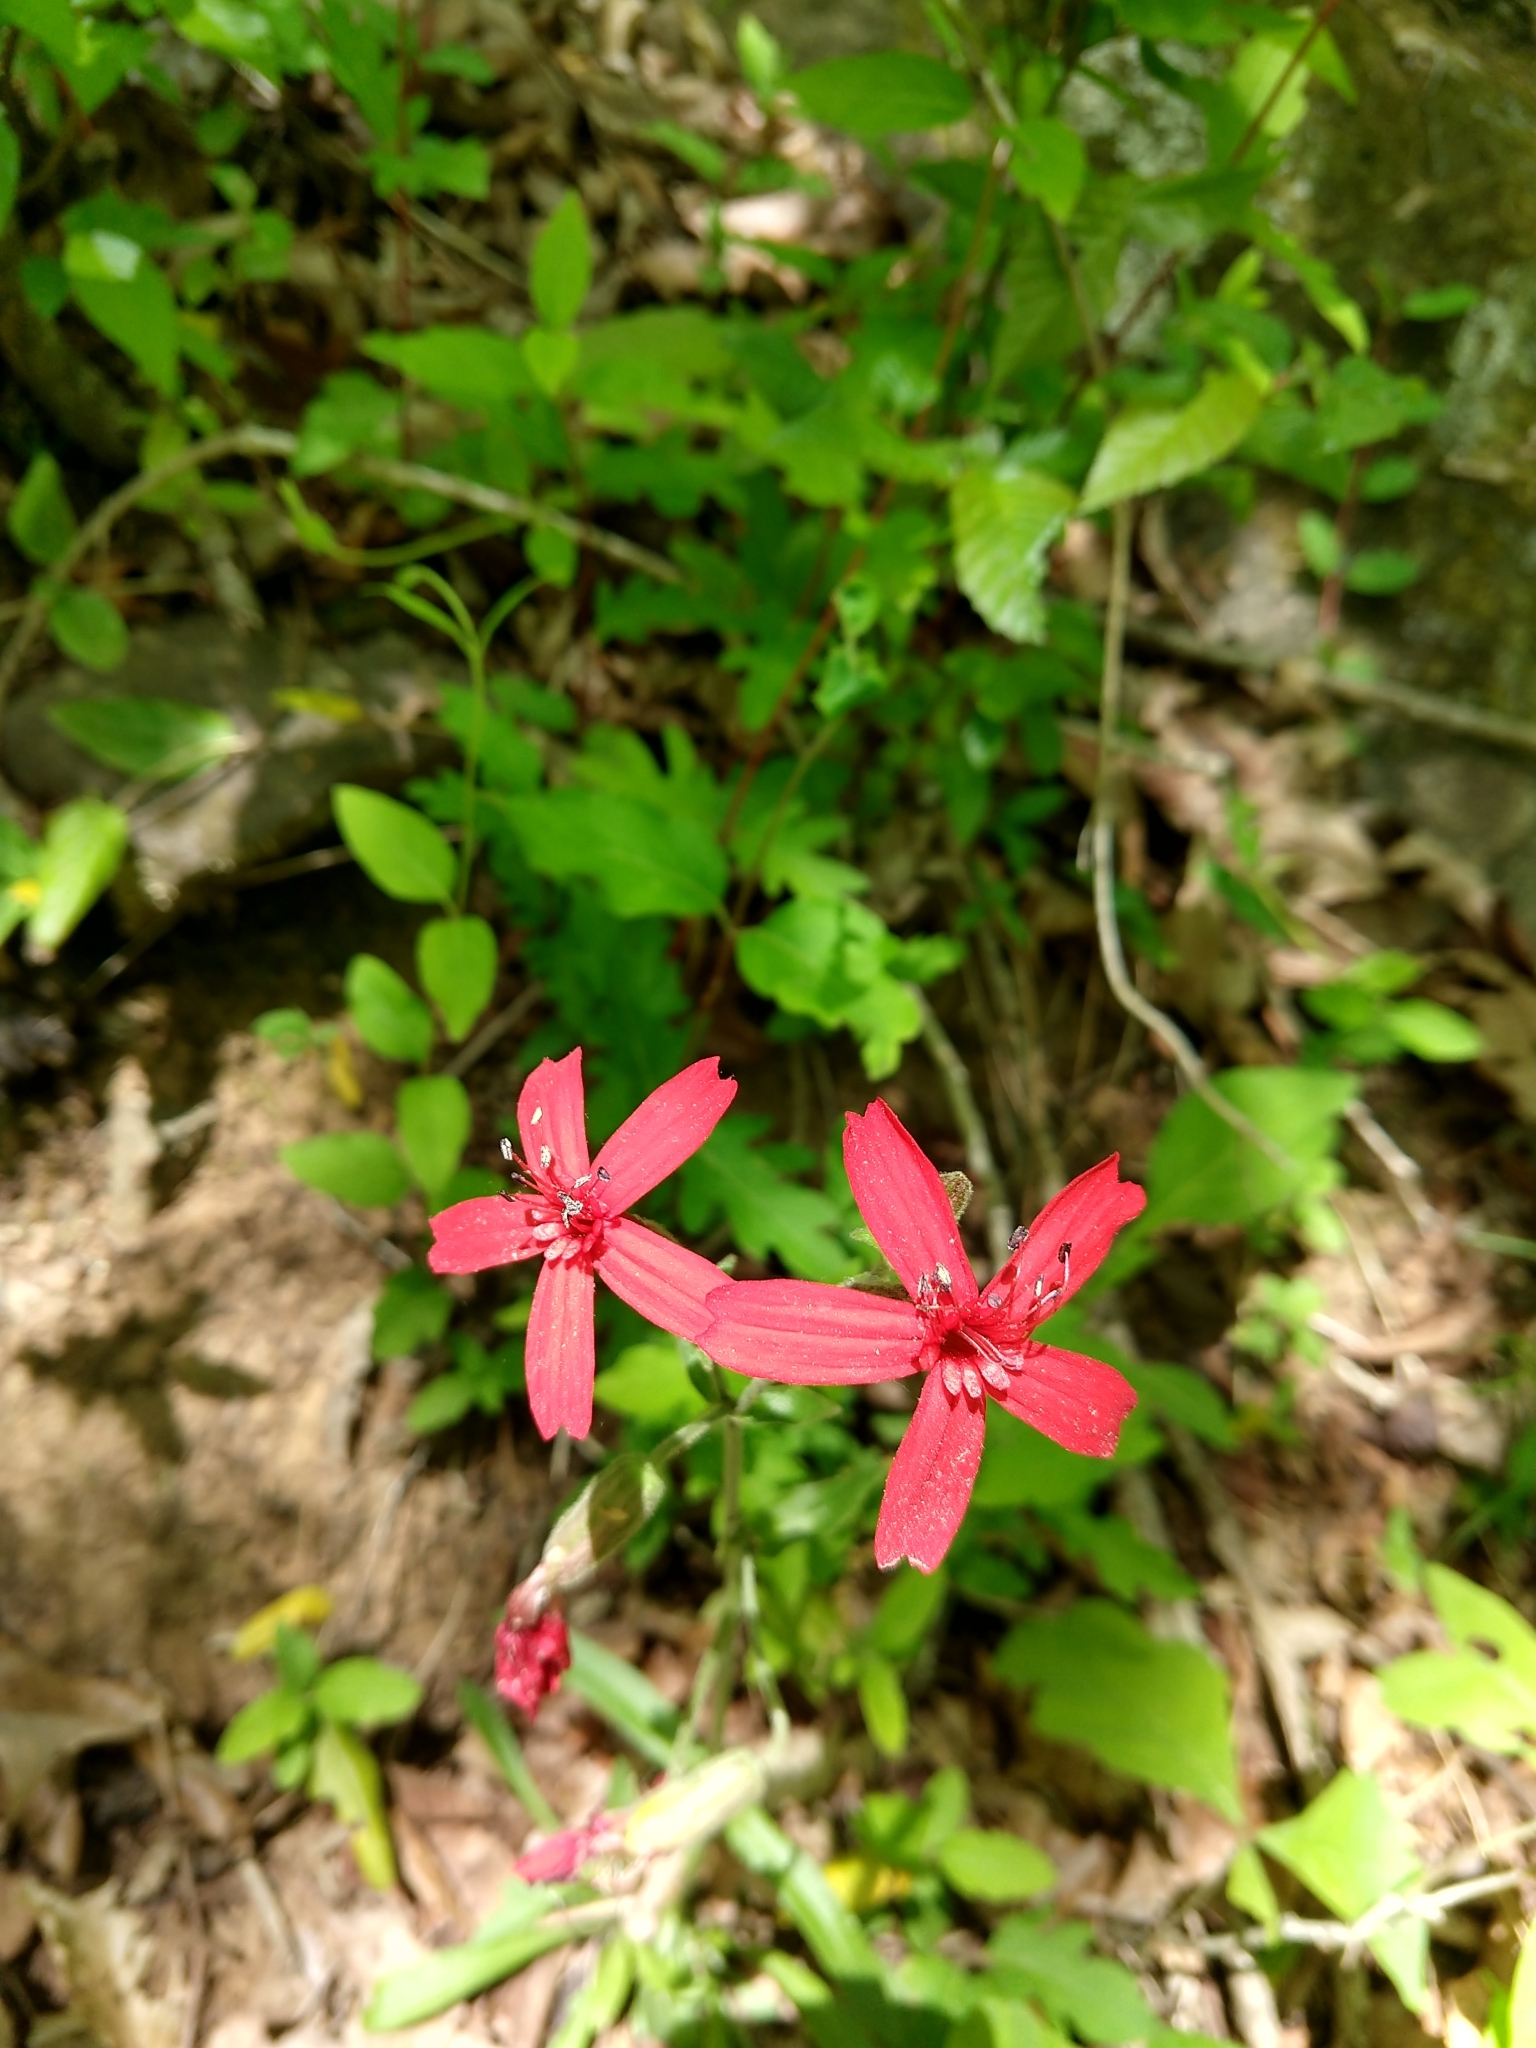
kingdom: Plantae
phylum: Tracheophyta
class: Magnoliopsida
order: Caryophyllales
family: Caryophyllaceae
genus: Silene
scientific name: Silene virginica
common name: Fire-pink
